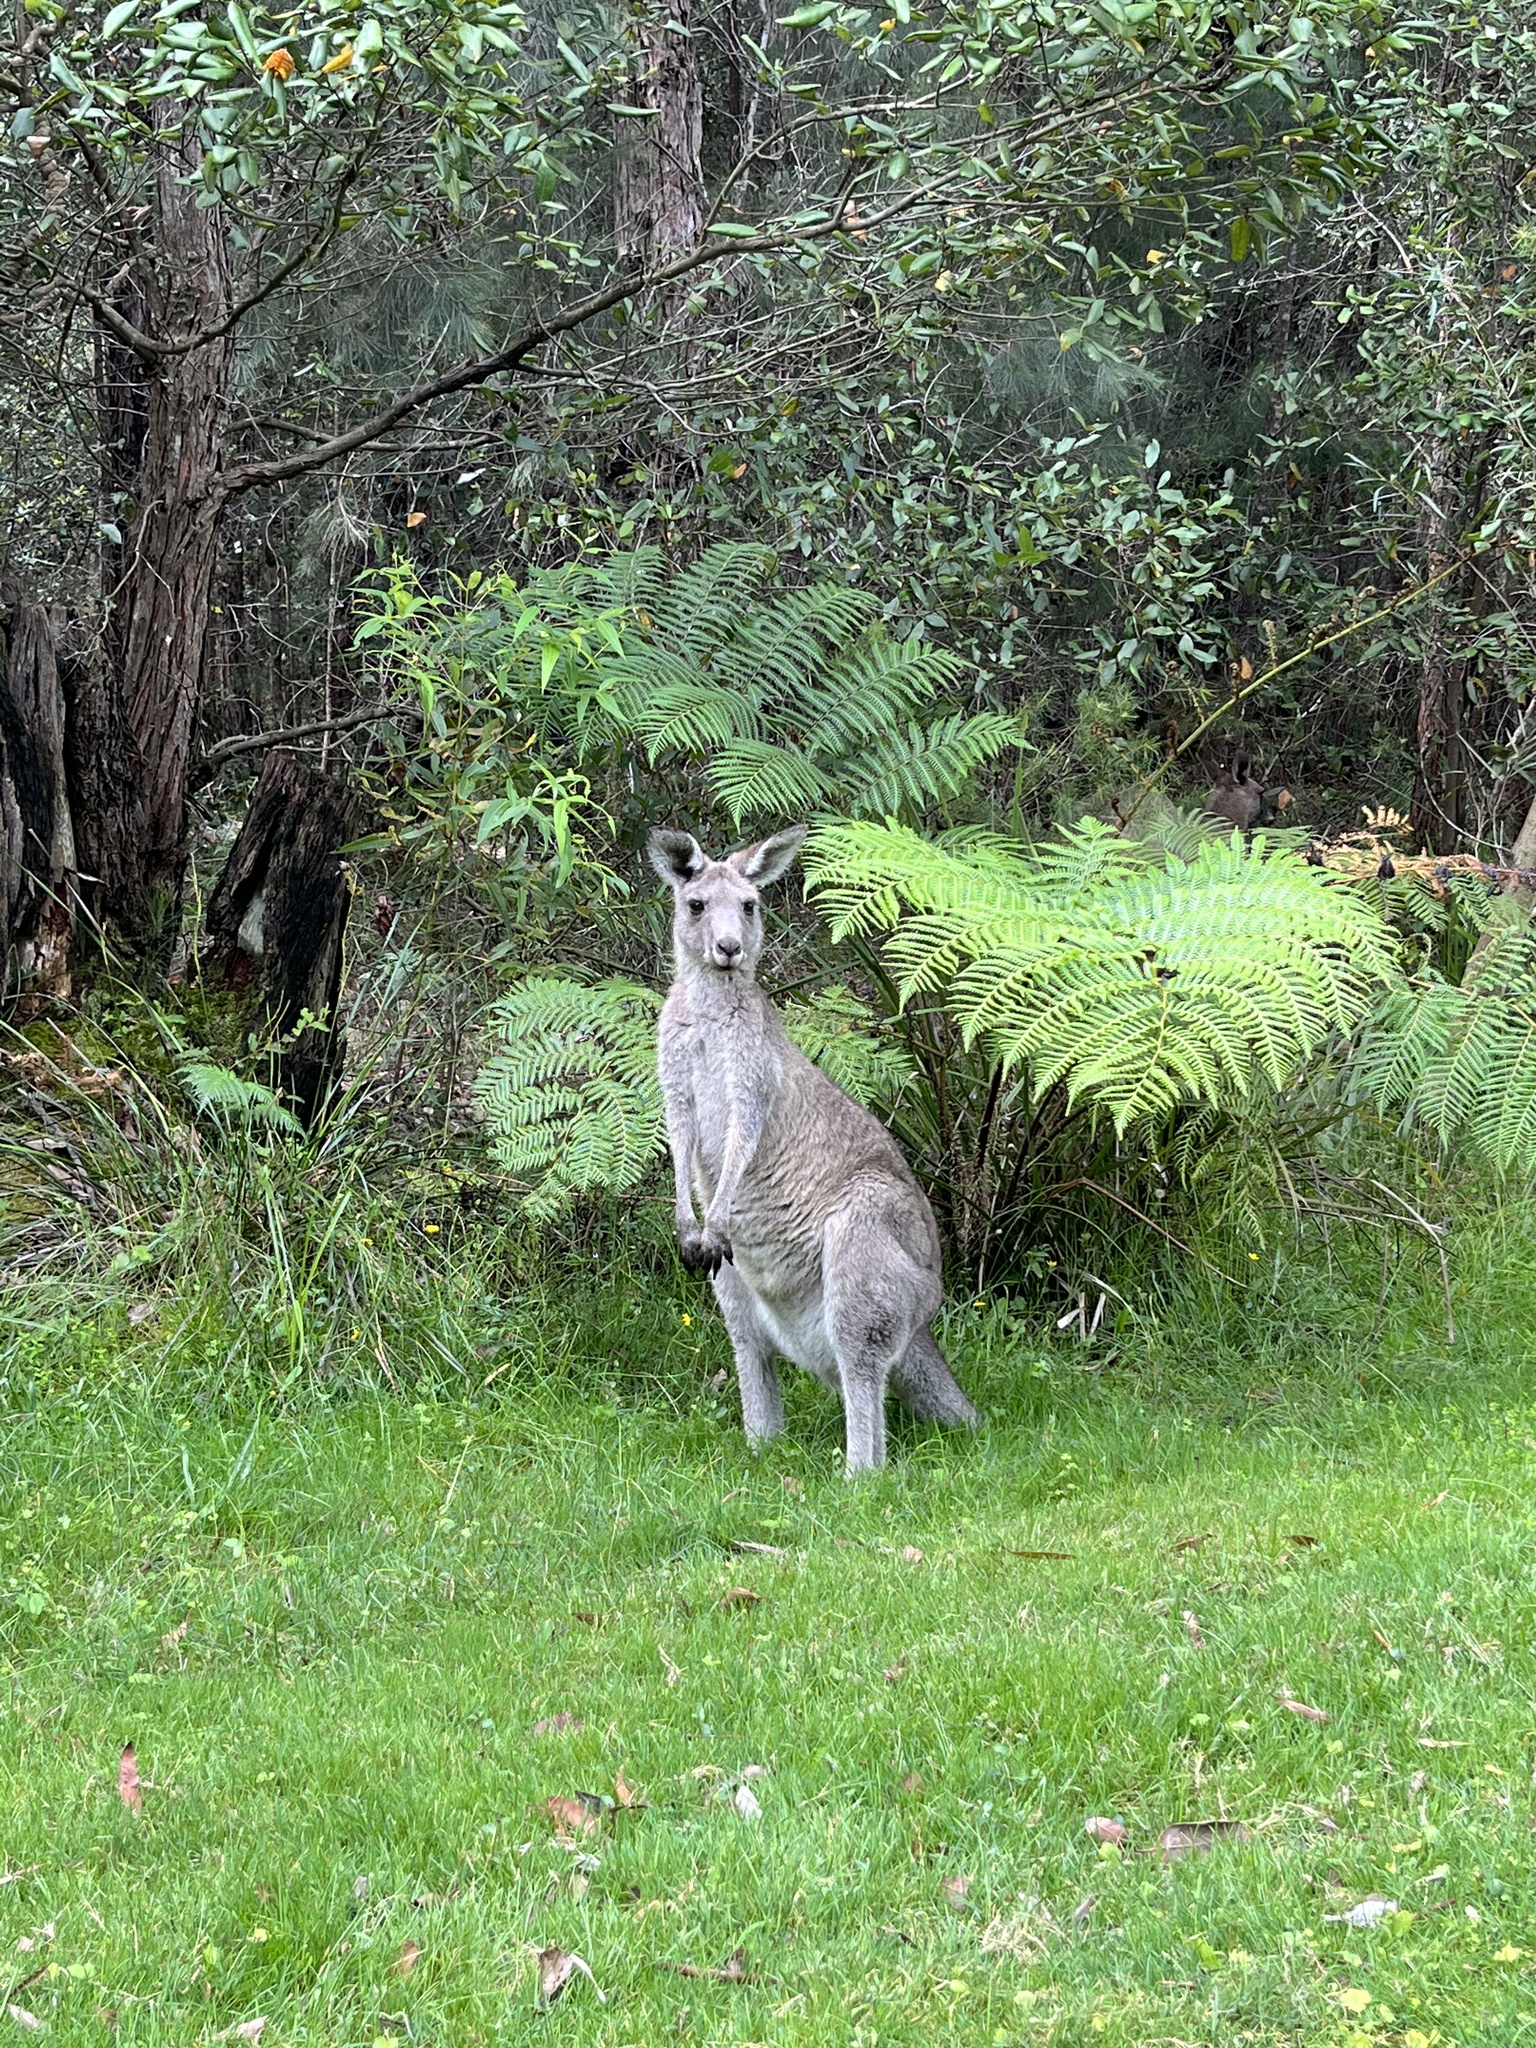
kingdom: Animalia
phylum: Chordata
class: Mammalia
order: Diprotodontia
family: Macropodidae
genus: Macropus
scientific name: Macropus giganteus
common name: Eastern grey kangaroo
